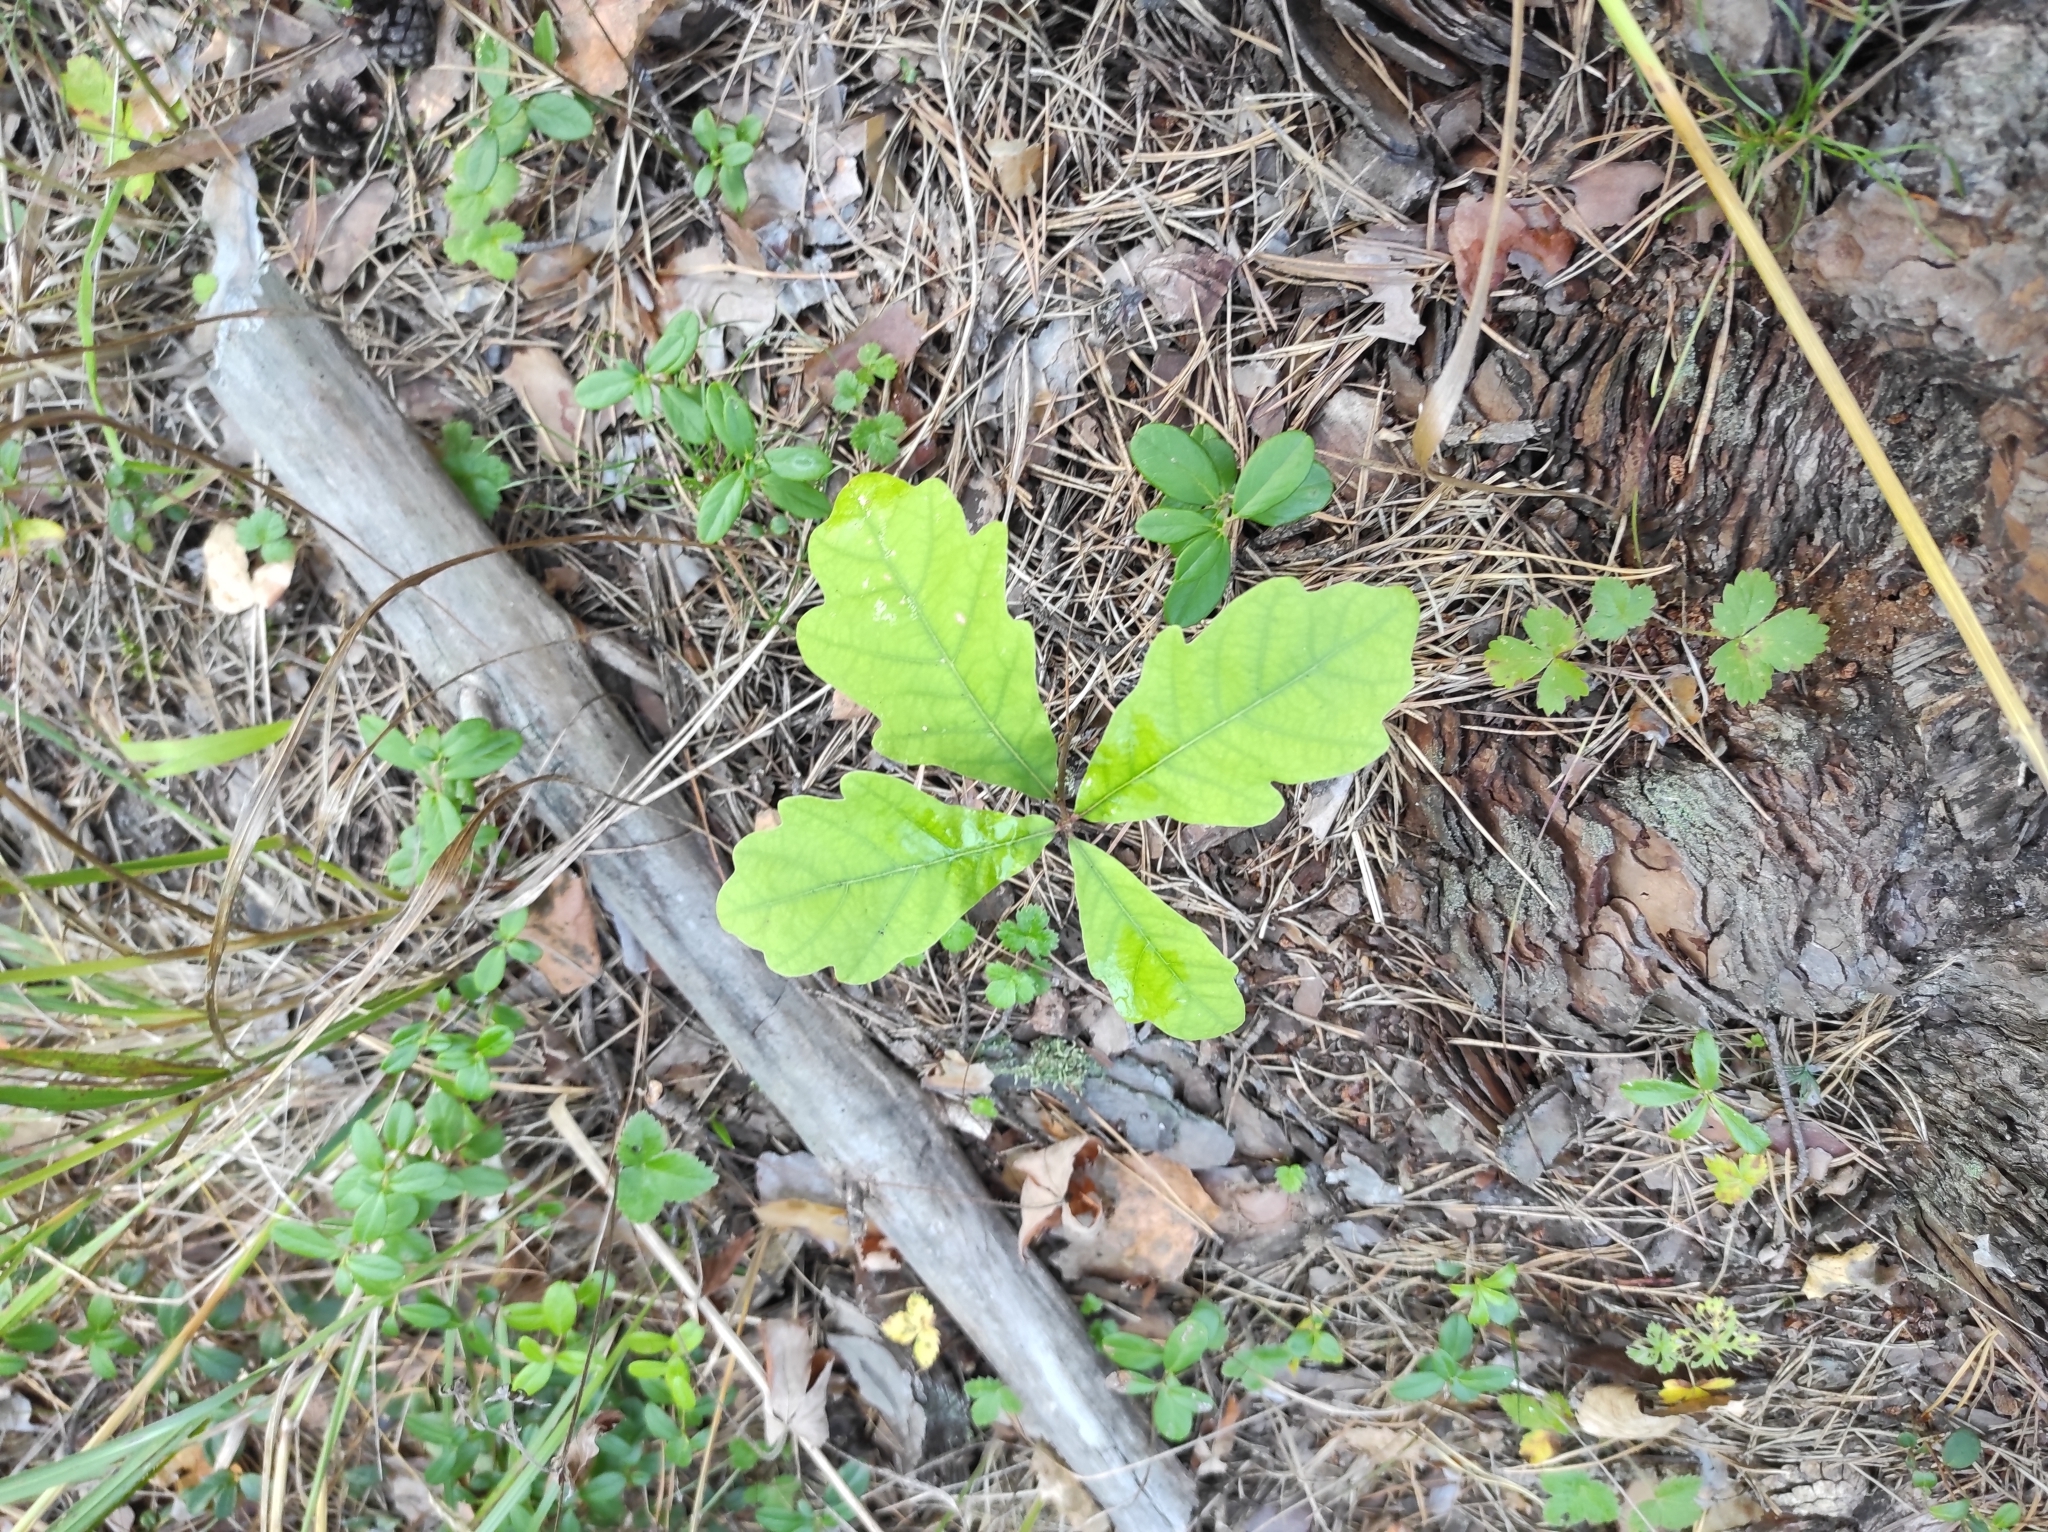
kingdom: Plantae
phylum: Tracheophyta
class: Magnoliopsida
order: Fagales
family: Fagaceae
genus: Quercus
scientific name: Quercus robur
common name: Pedunculate oak
